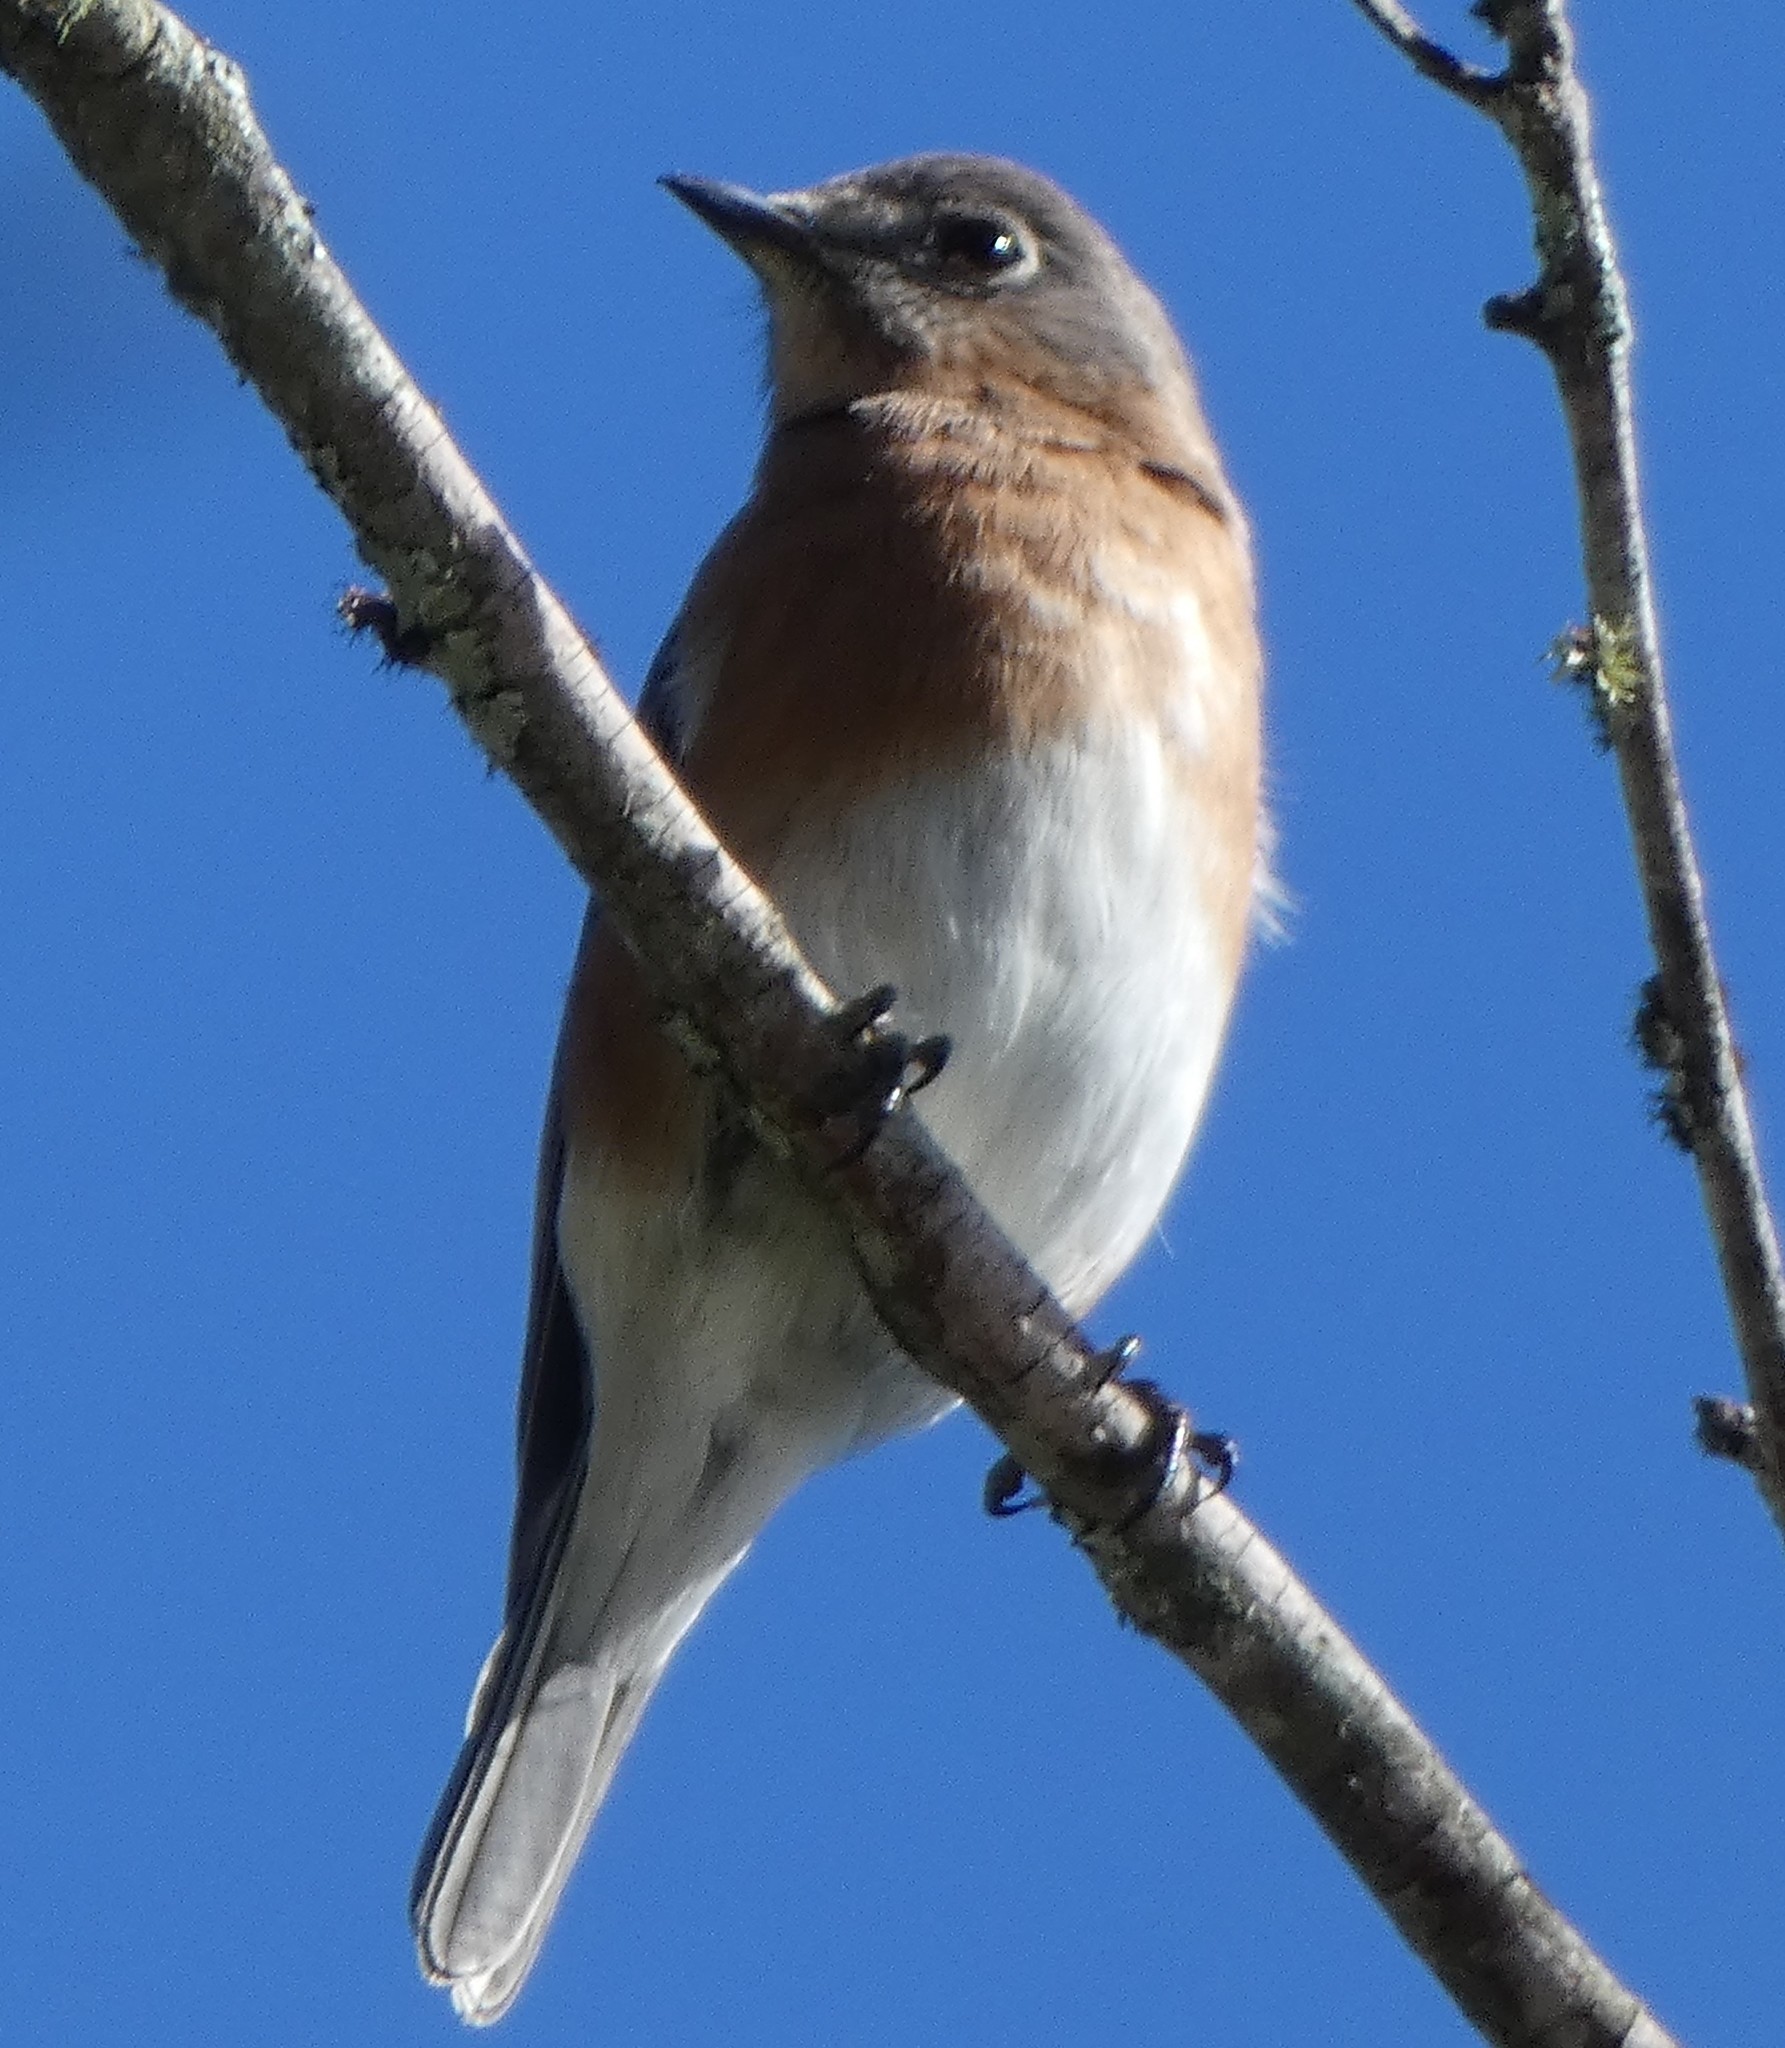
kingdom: Animalia
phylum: Chordata
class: Aves
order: Passeriformes
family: Turdidae
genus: Sialia
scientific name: Sialia sialis
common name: Eastern bluebird
